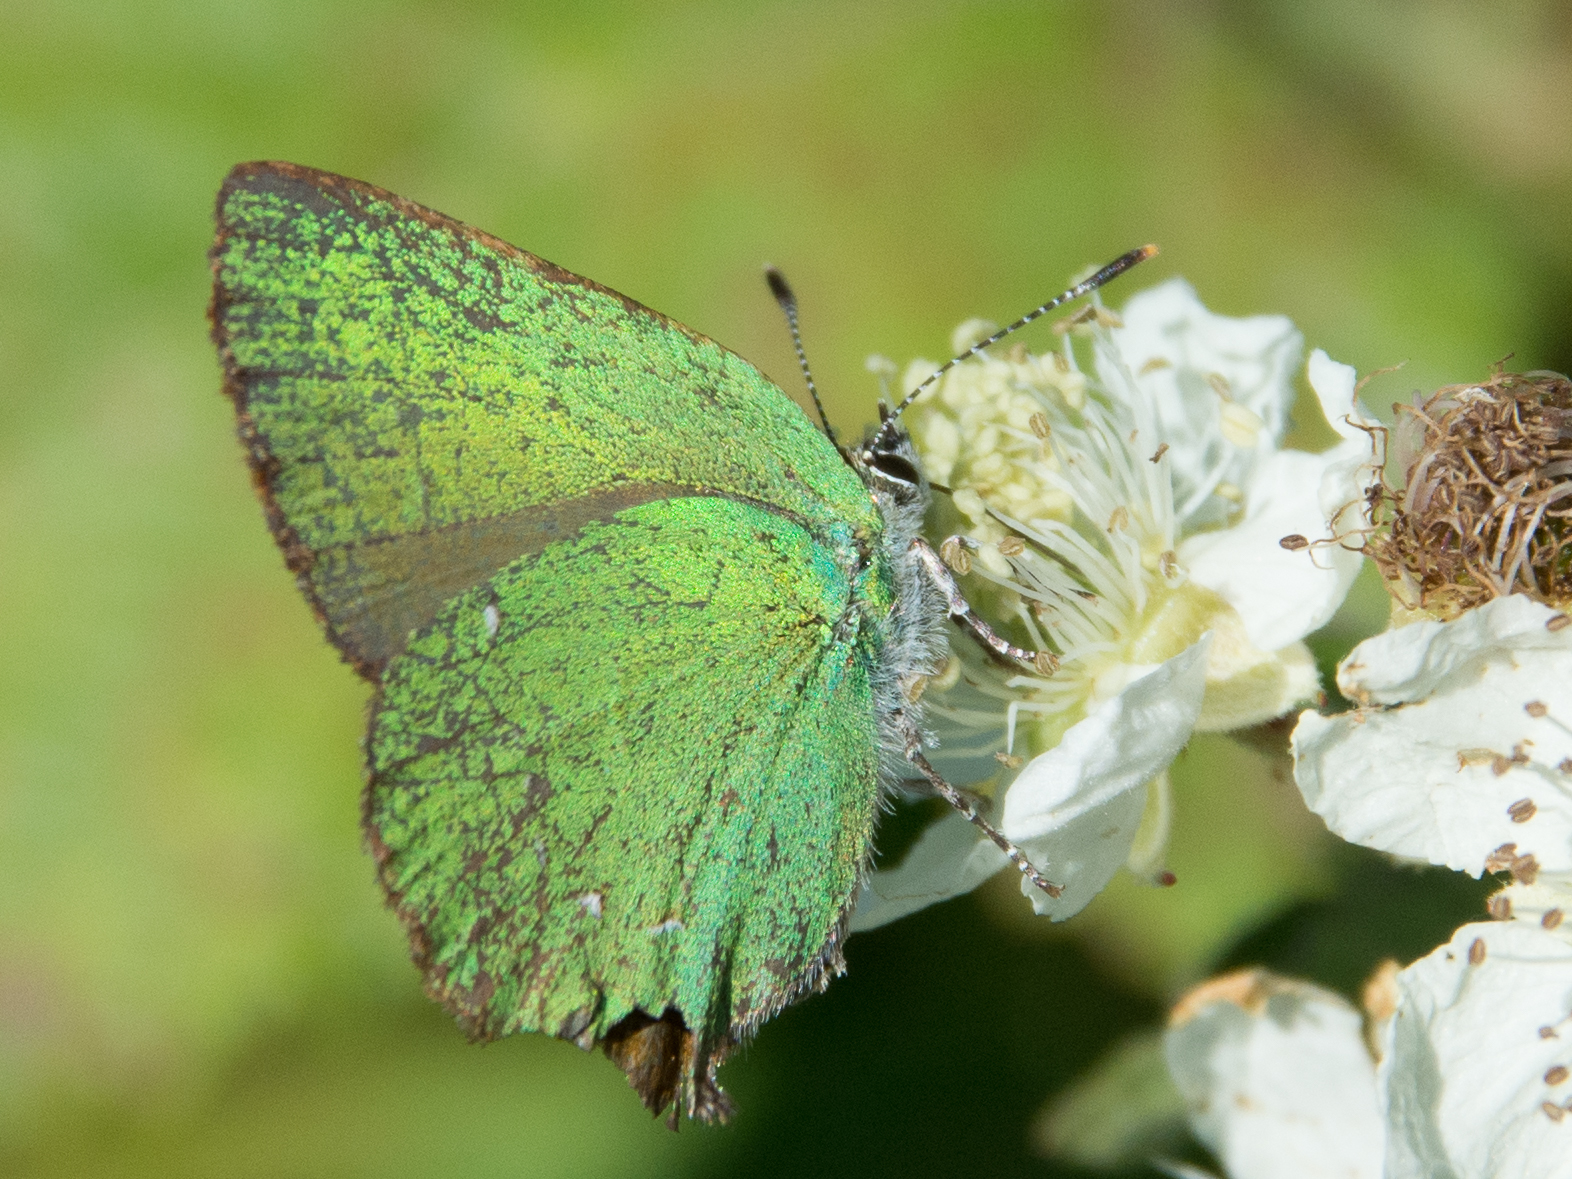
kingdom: Animalia
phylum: Arthropoda
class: Insecta
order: Lepidoptera
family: Lycaenidae
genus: Callophrys
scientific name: Callophrys rubi
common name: Green hairstreak
